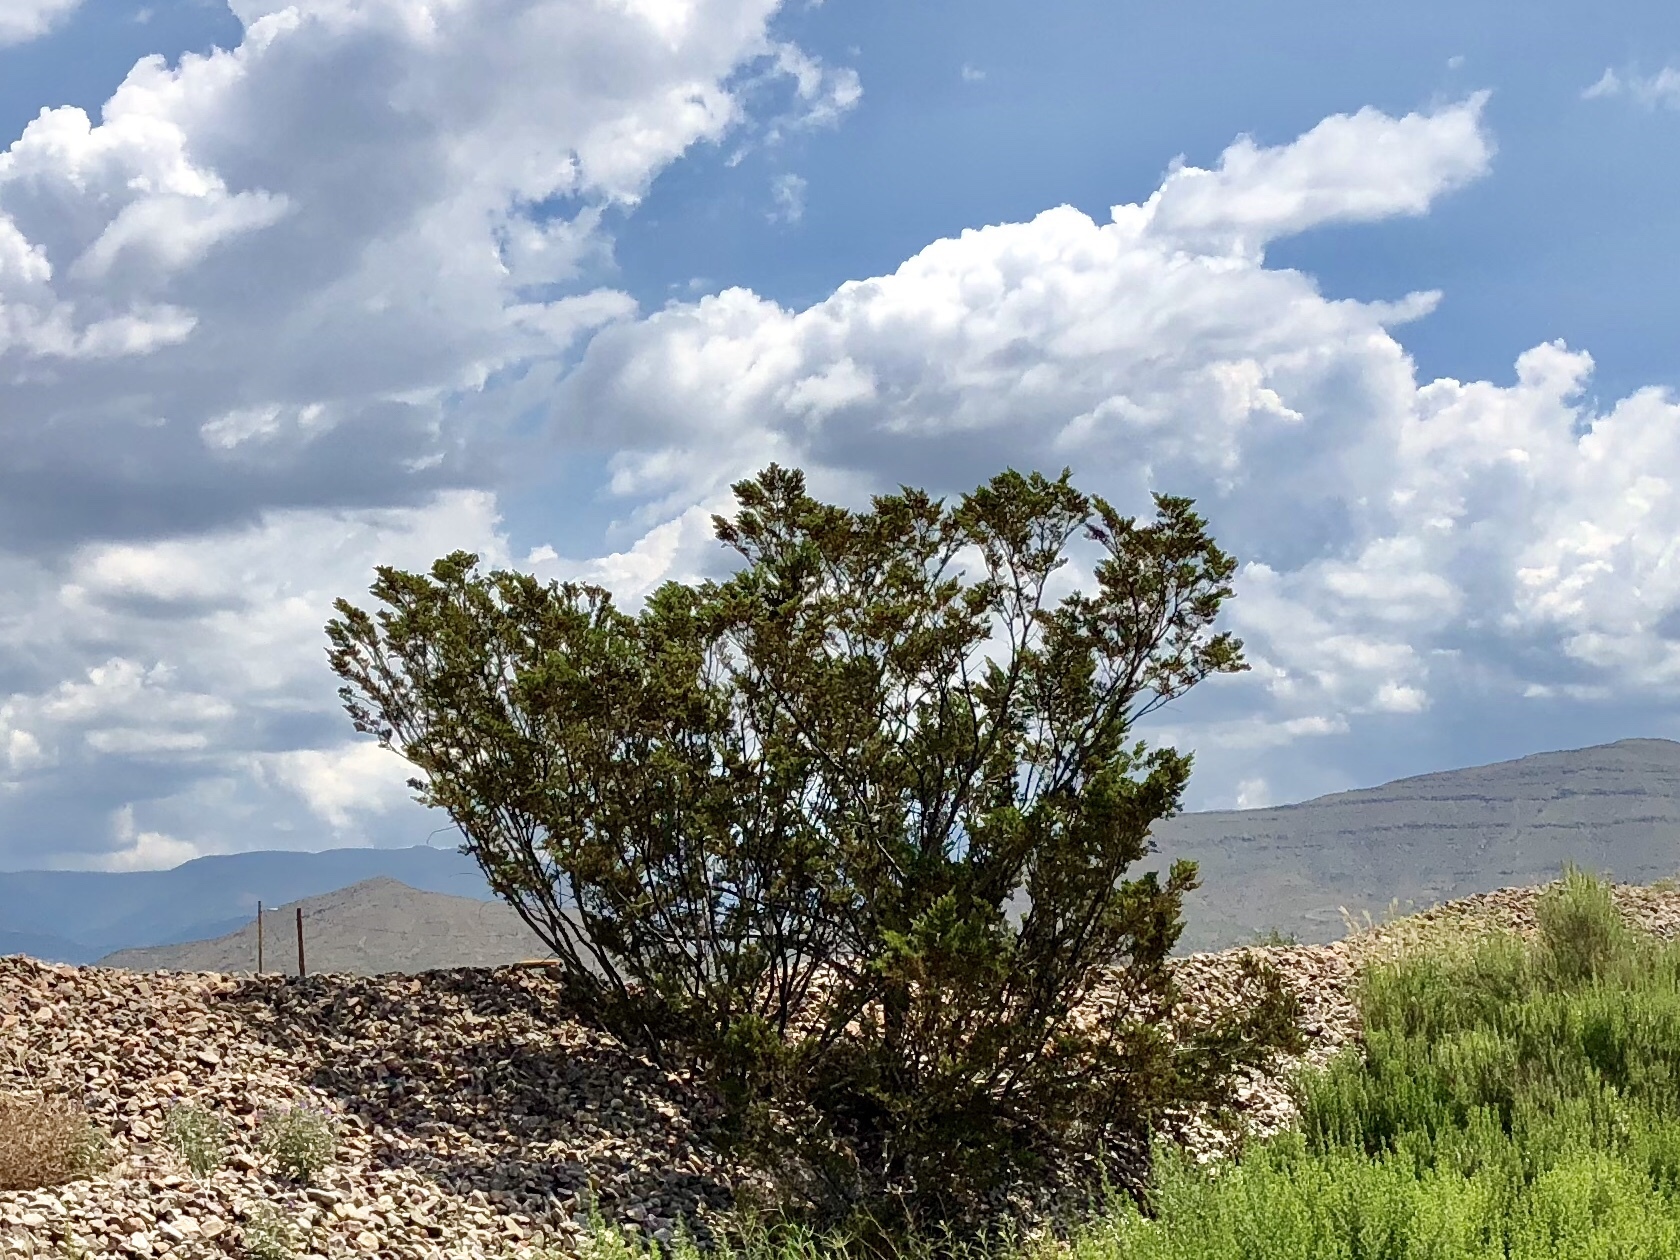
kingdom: Plantae
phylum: Tracheophyta
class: Magnoliopsida
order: Zygophyllales
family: Zygophyllaceae
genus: Larrea
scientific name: Larrea tridentata
